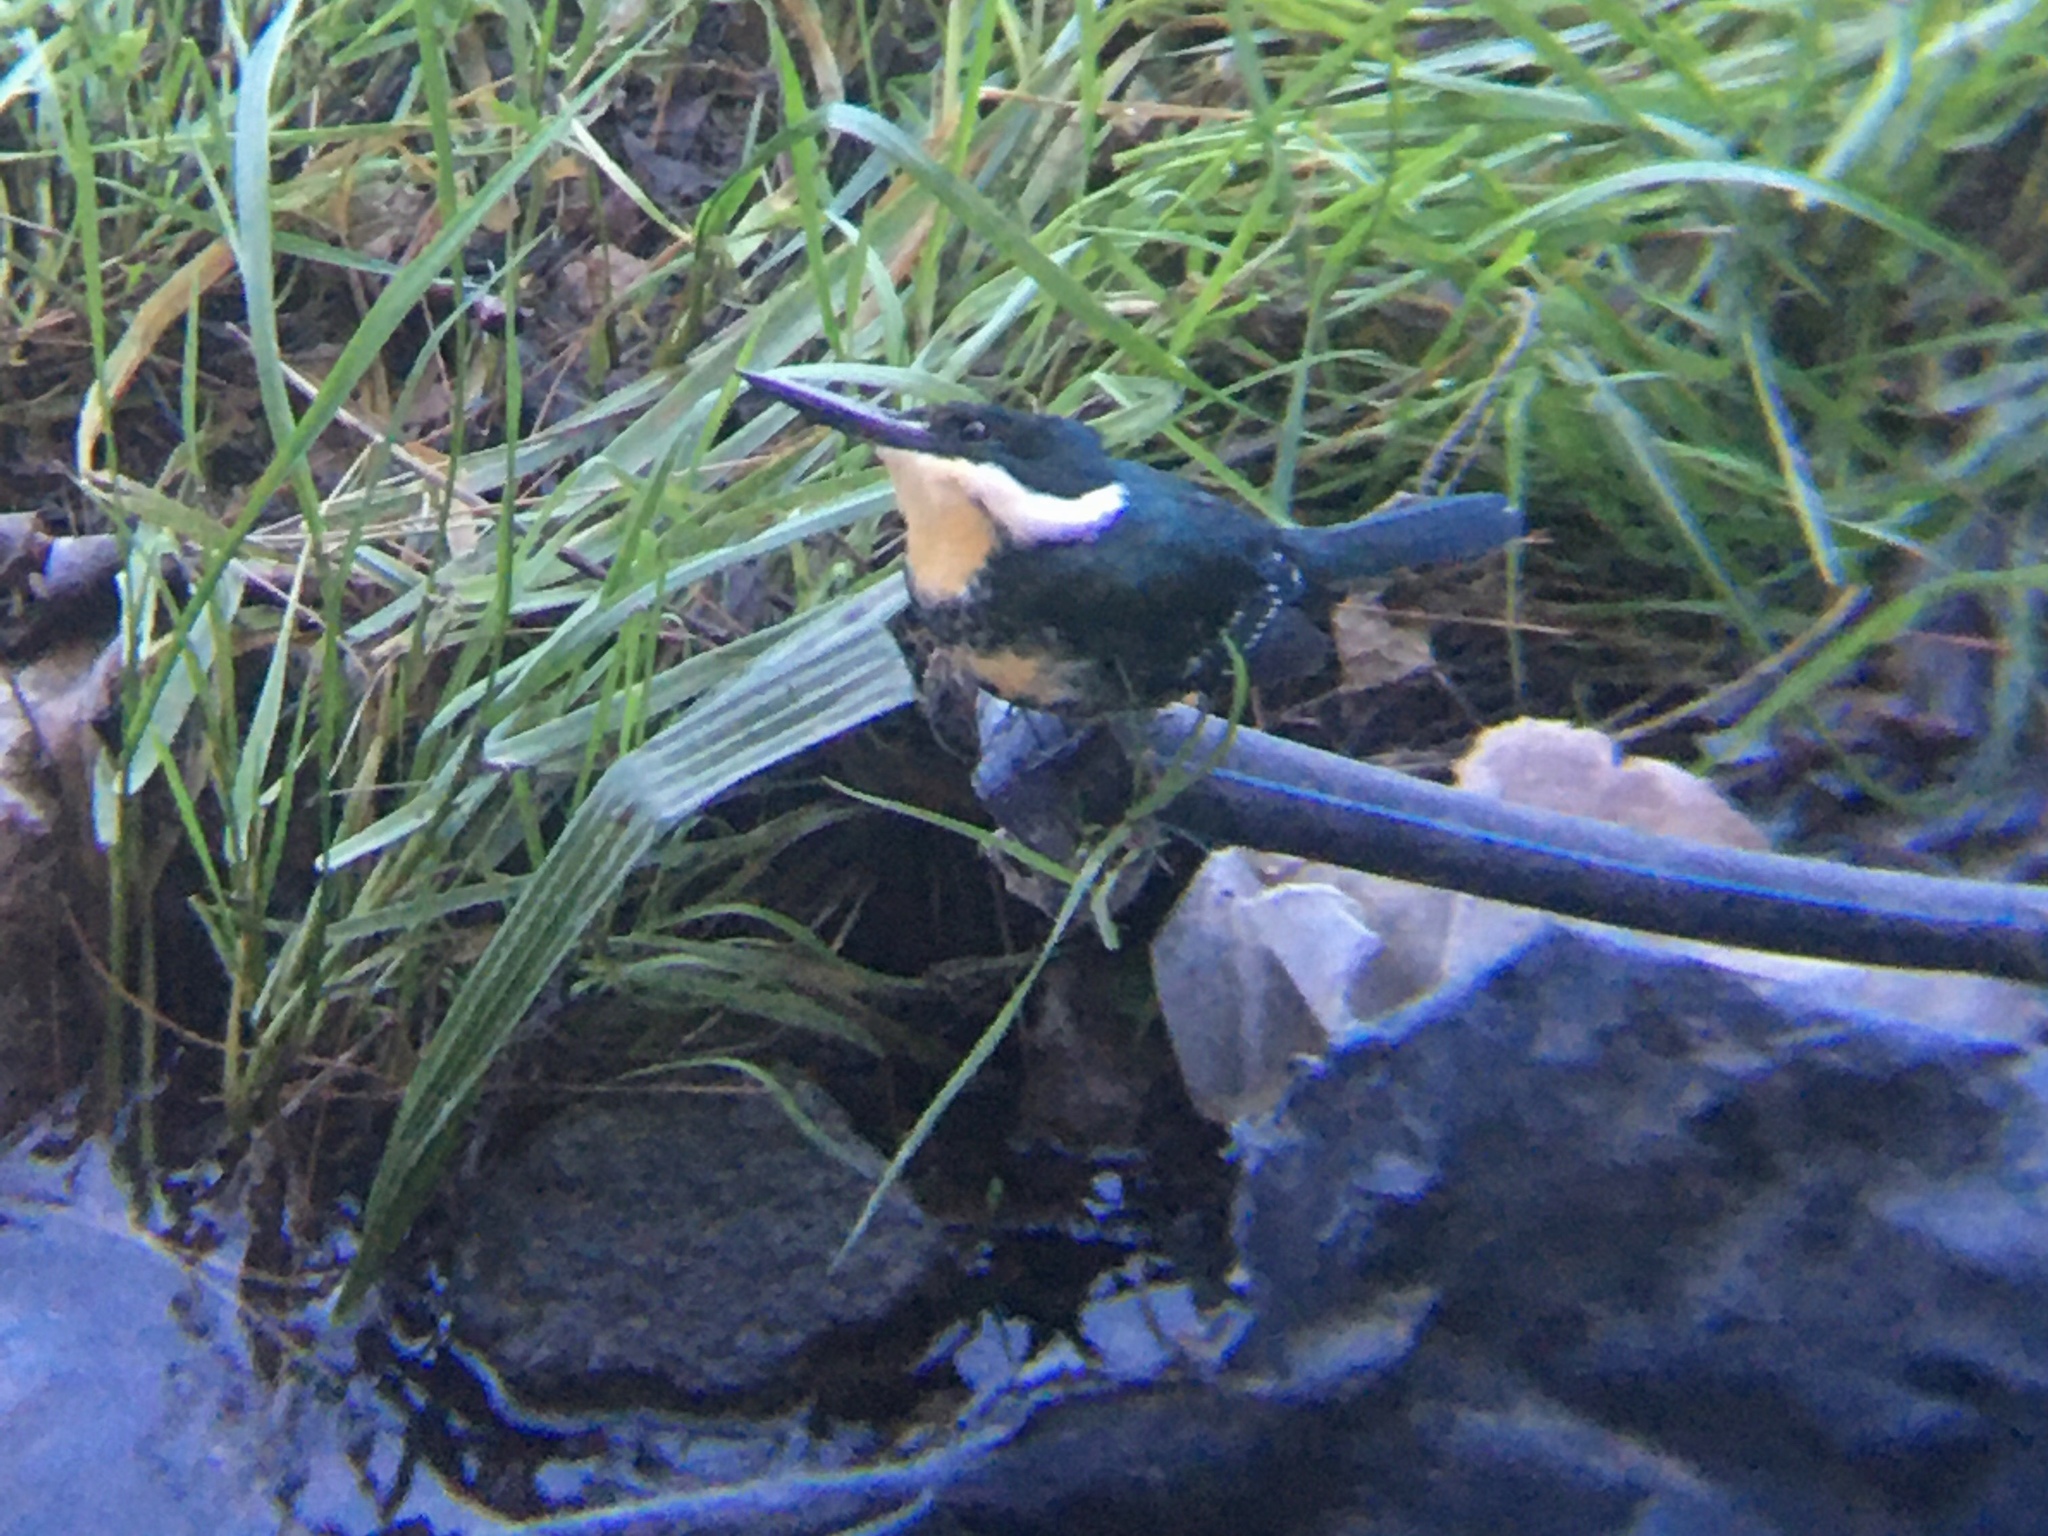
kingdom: Animalia
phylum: Chordata
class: Aves
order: Coraciiformes
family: Alcedinidae
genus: Chloroceryle
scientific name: Chloroceryle americana
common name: Green kingfisher
